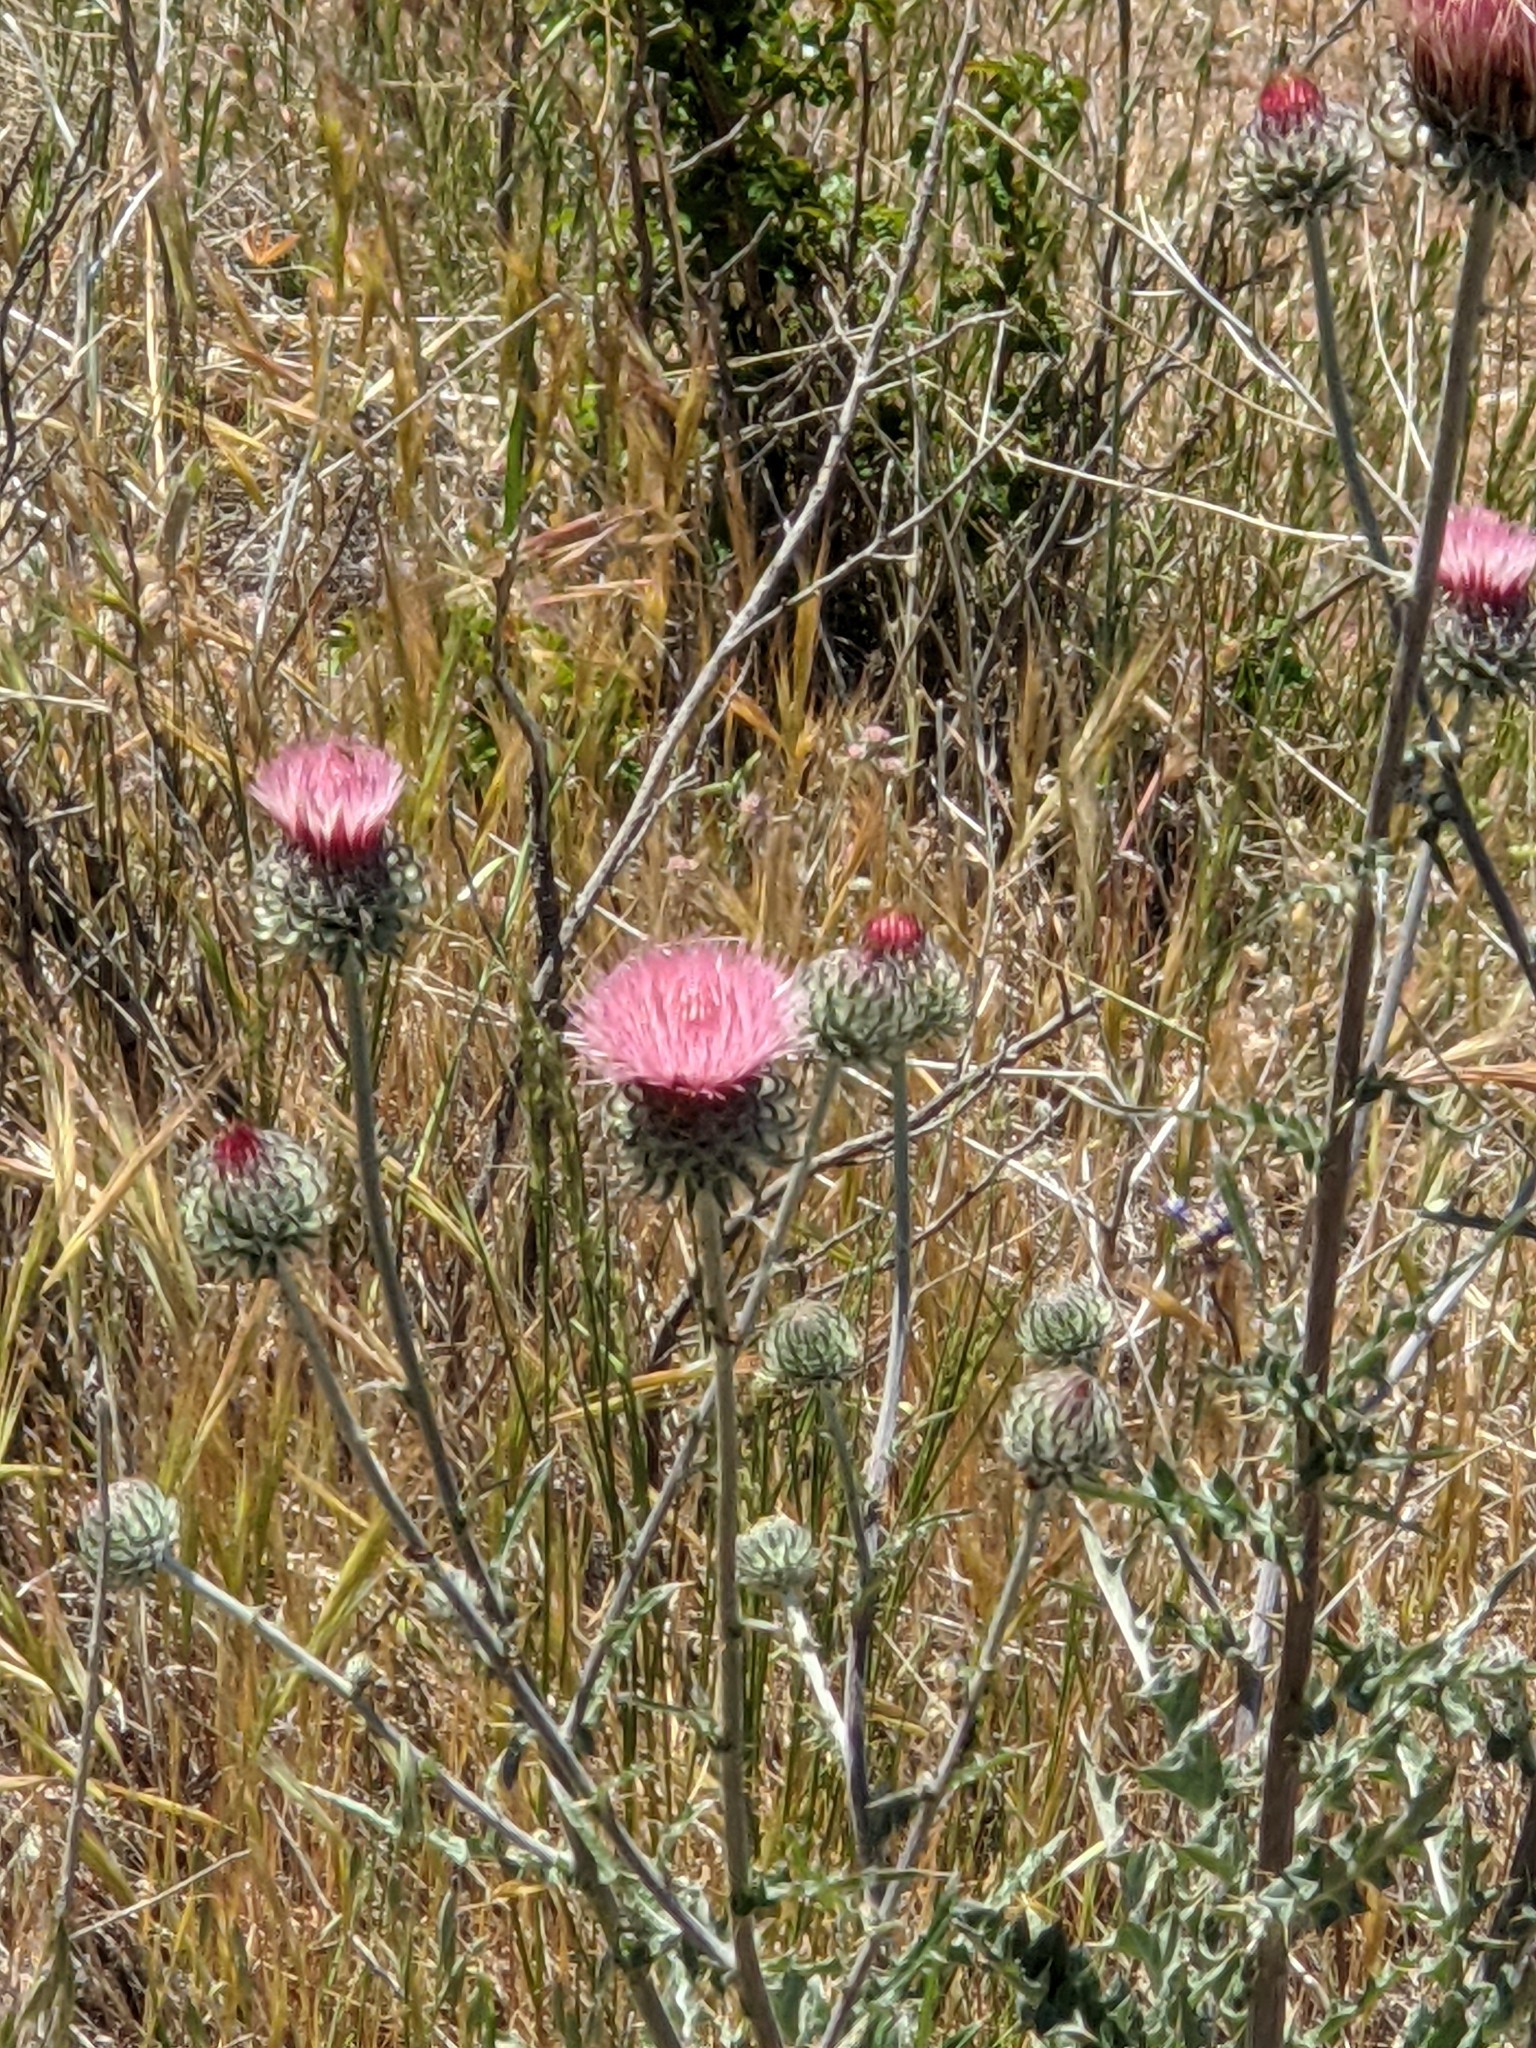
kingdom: Plantae
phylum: Tracheophyta
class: Magnoliopsida
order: Asterales
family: Asteraceae
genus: Cirsium
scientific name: Cirsium occidentale
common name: Western thistle
